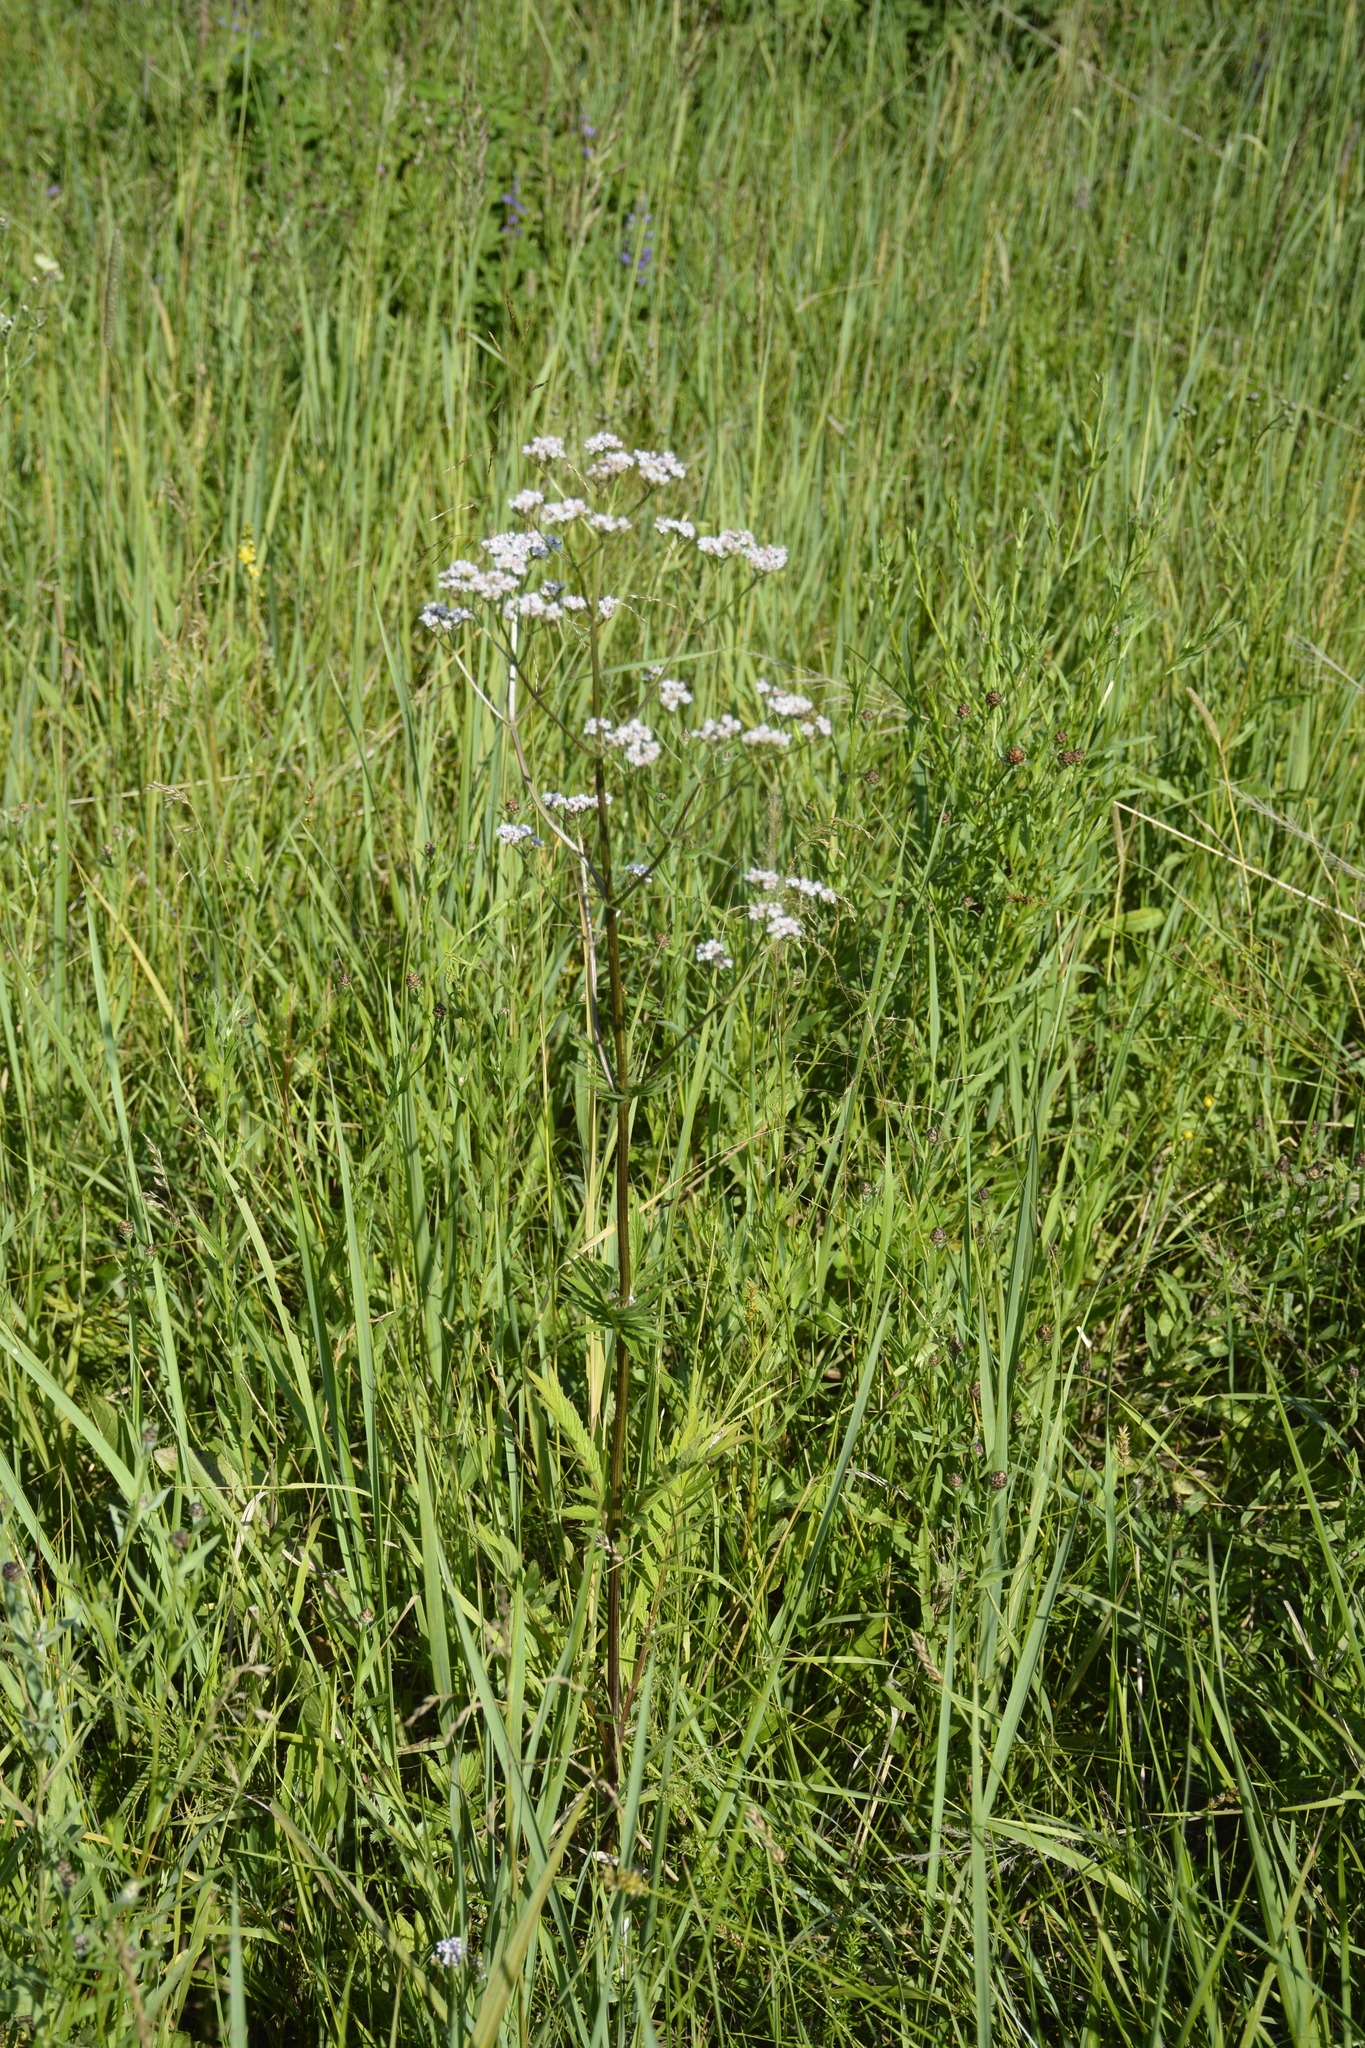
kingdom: Plantae
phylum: Tracheophyta
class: Magnoliopsida
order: Dipsacales
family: Caprifoliaceae
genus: Valeriana
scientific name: Valeriana officinalis
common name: Common valerian
